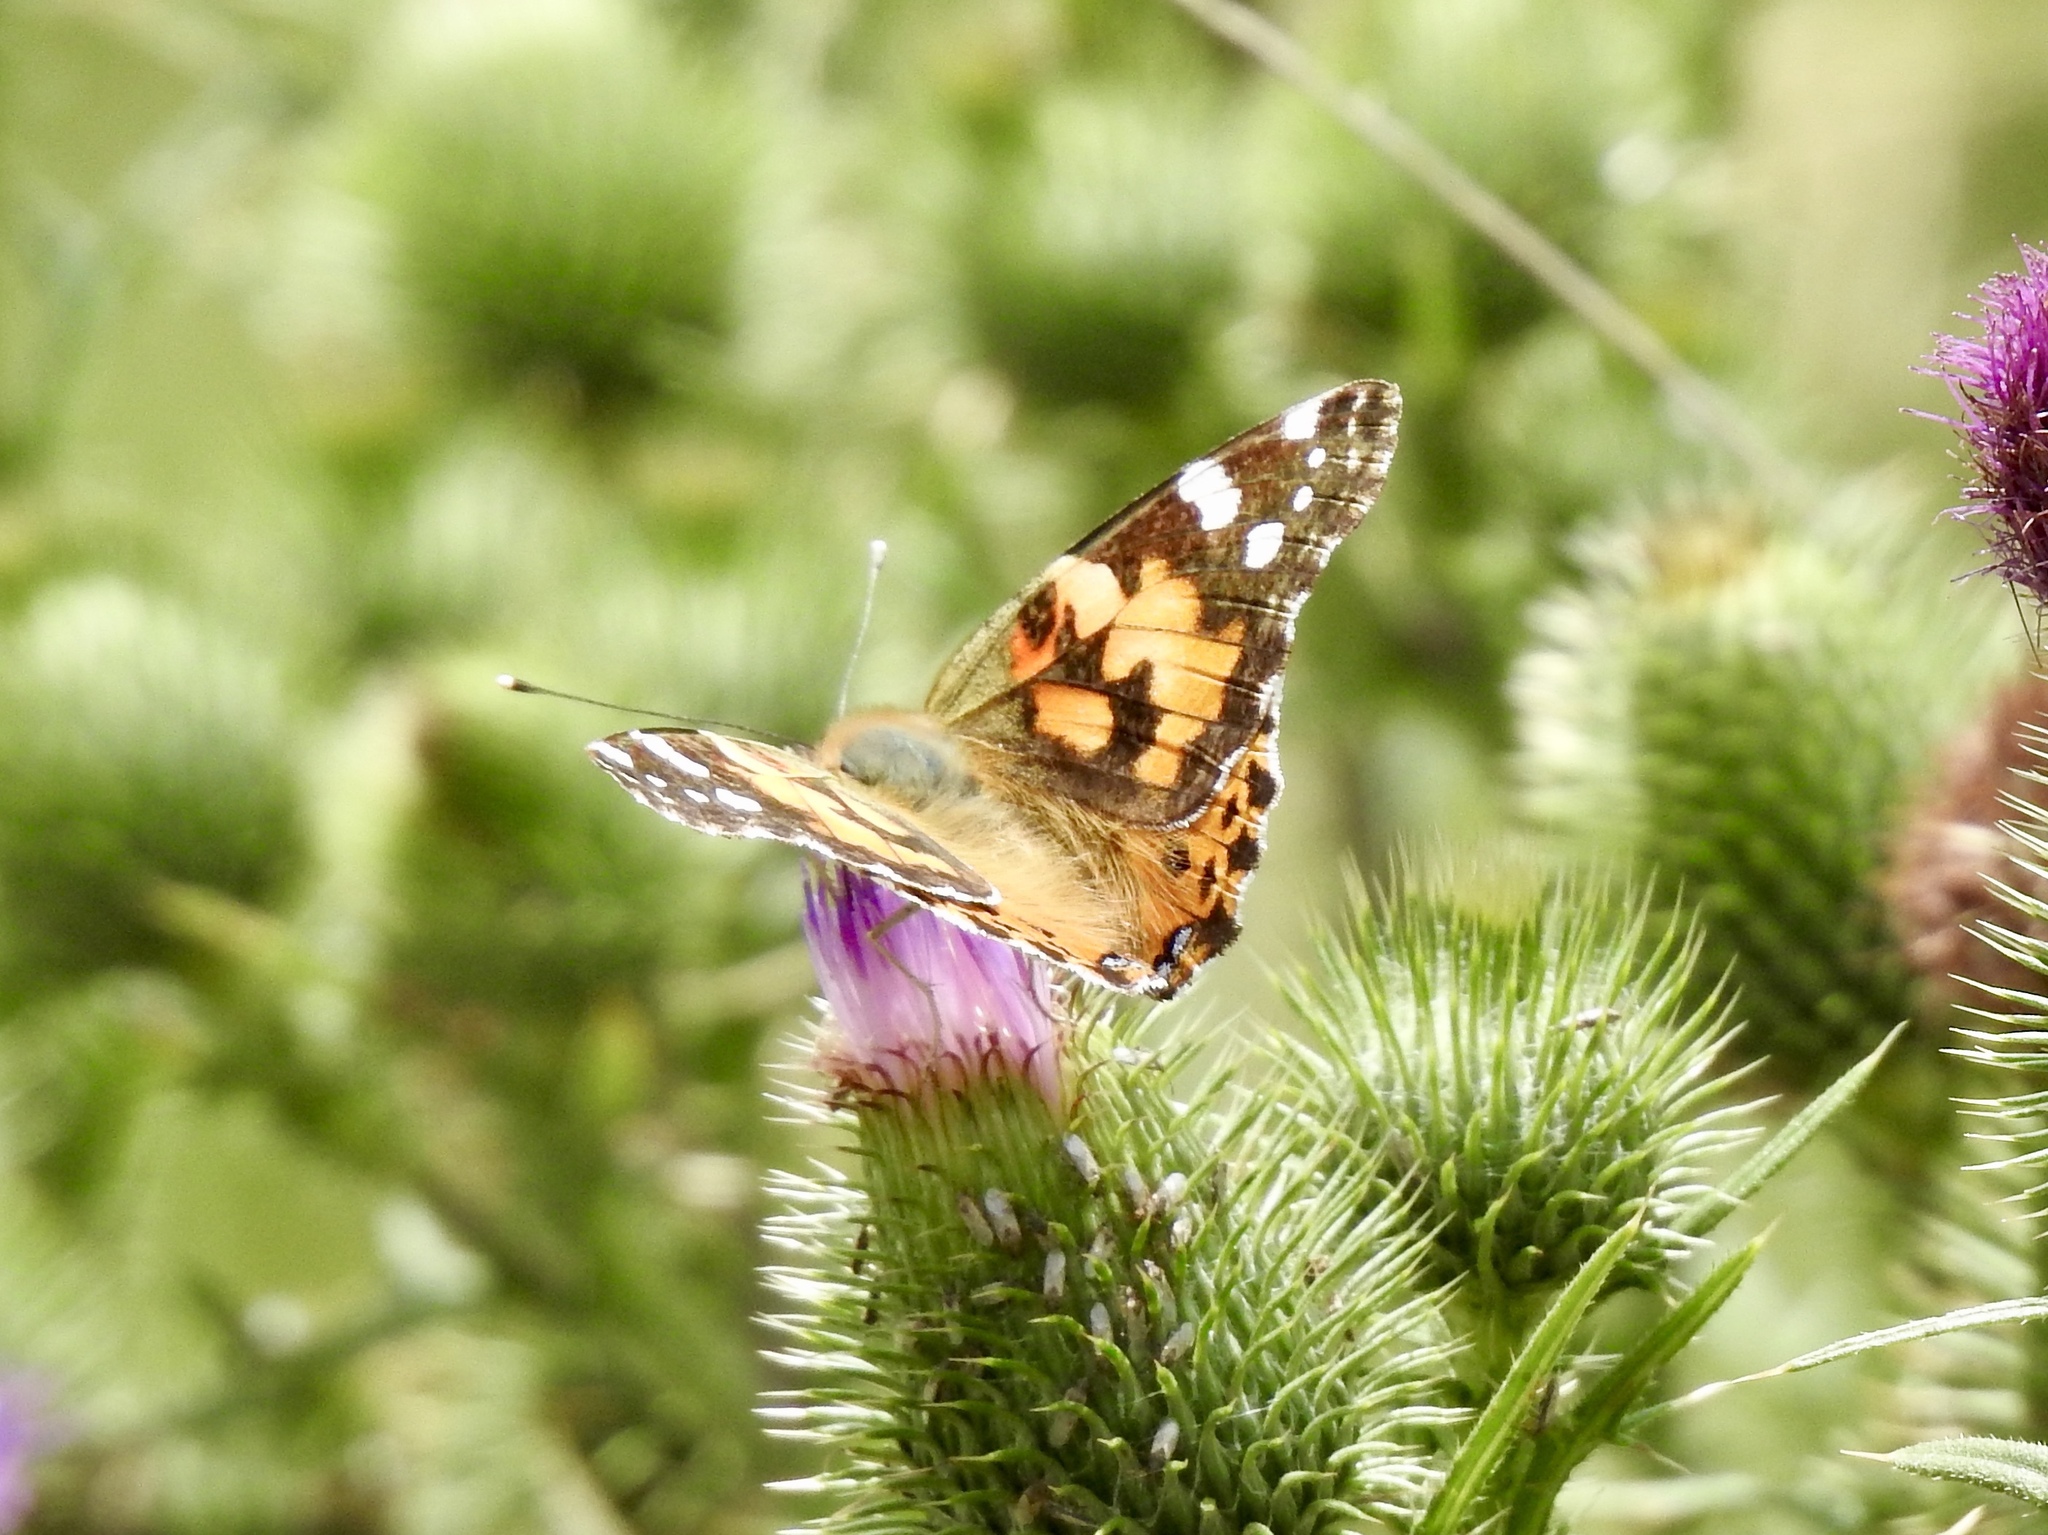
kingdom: Animalia
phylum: Arthropoda
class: Insecta
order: Lepidoptera
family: Nymphalidae
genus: Vanessa
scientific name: Vanessa cardui
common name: Painted lady
